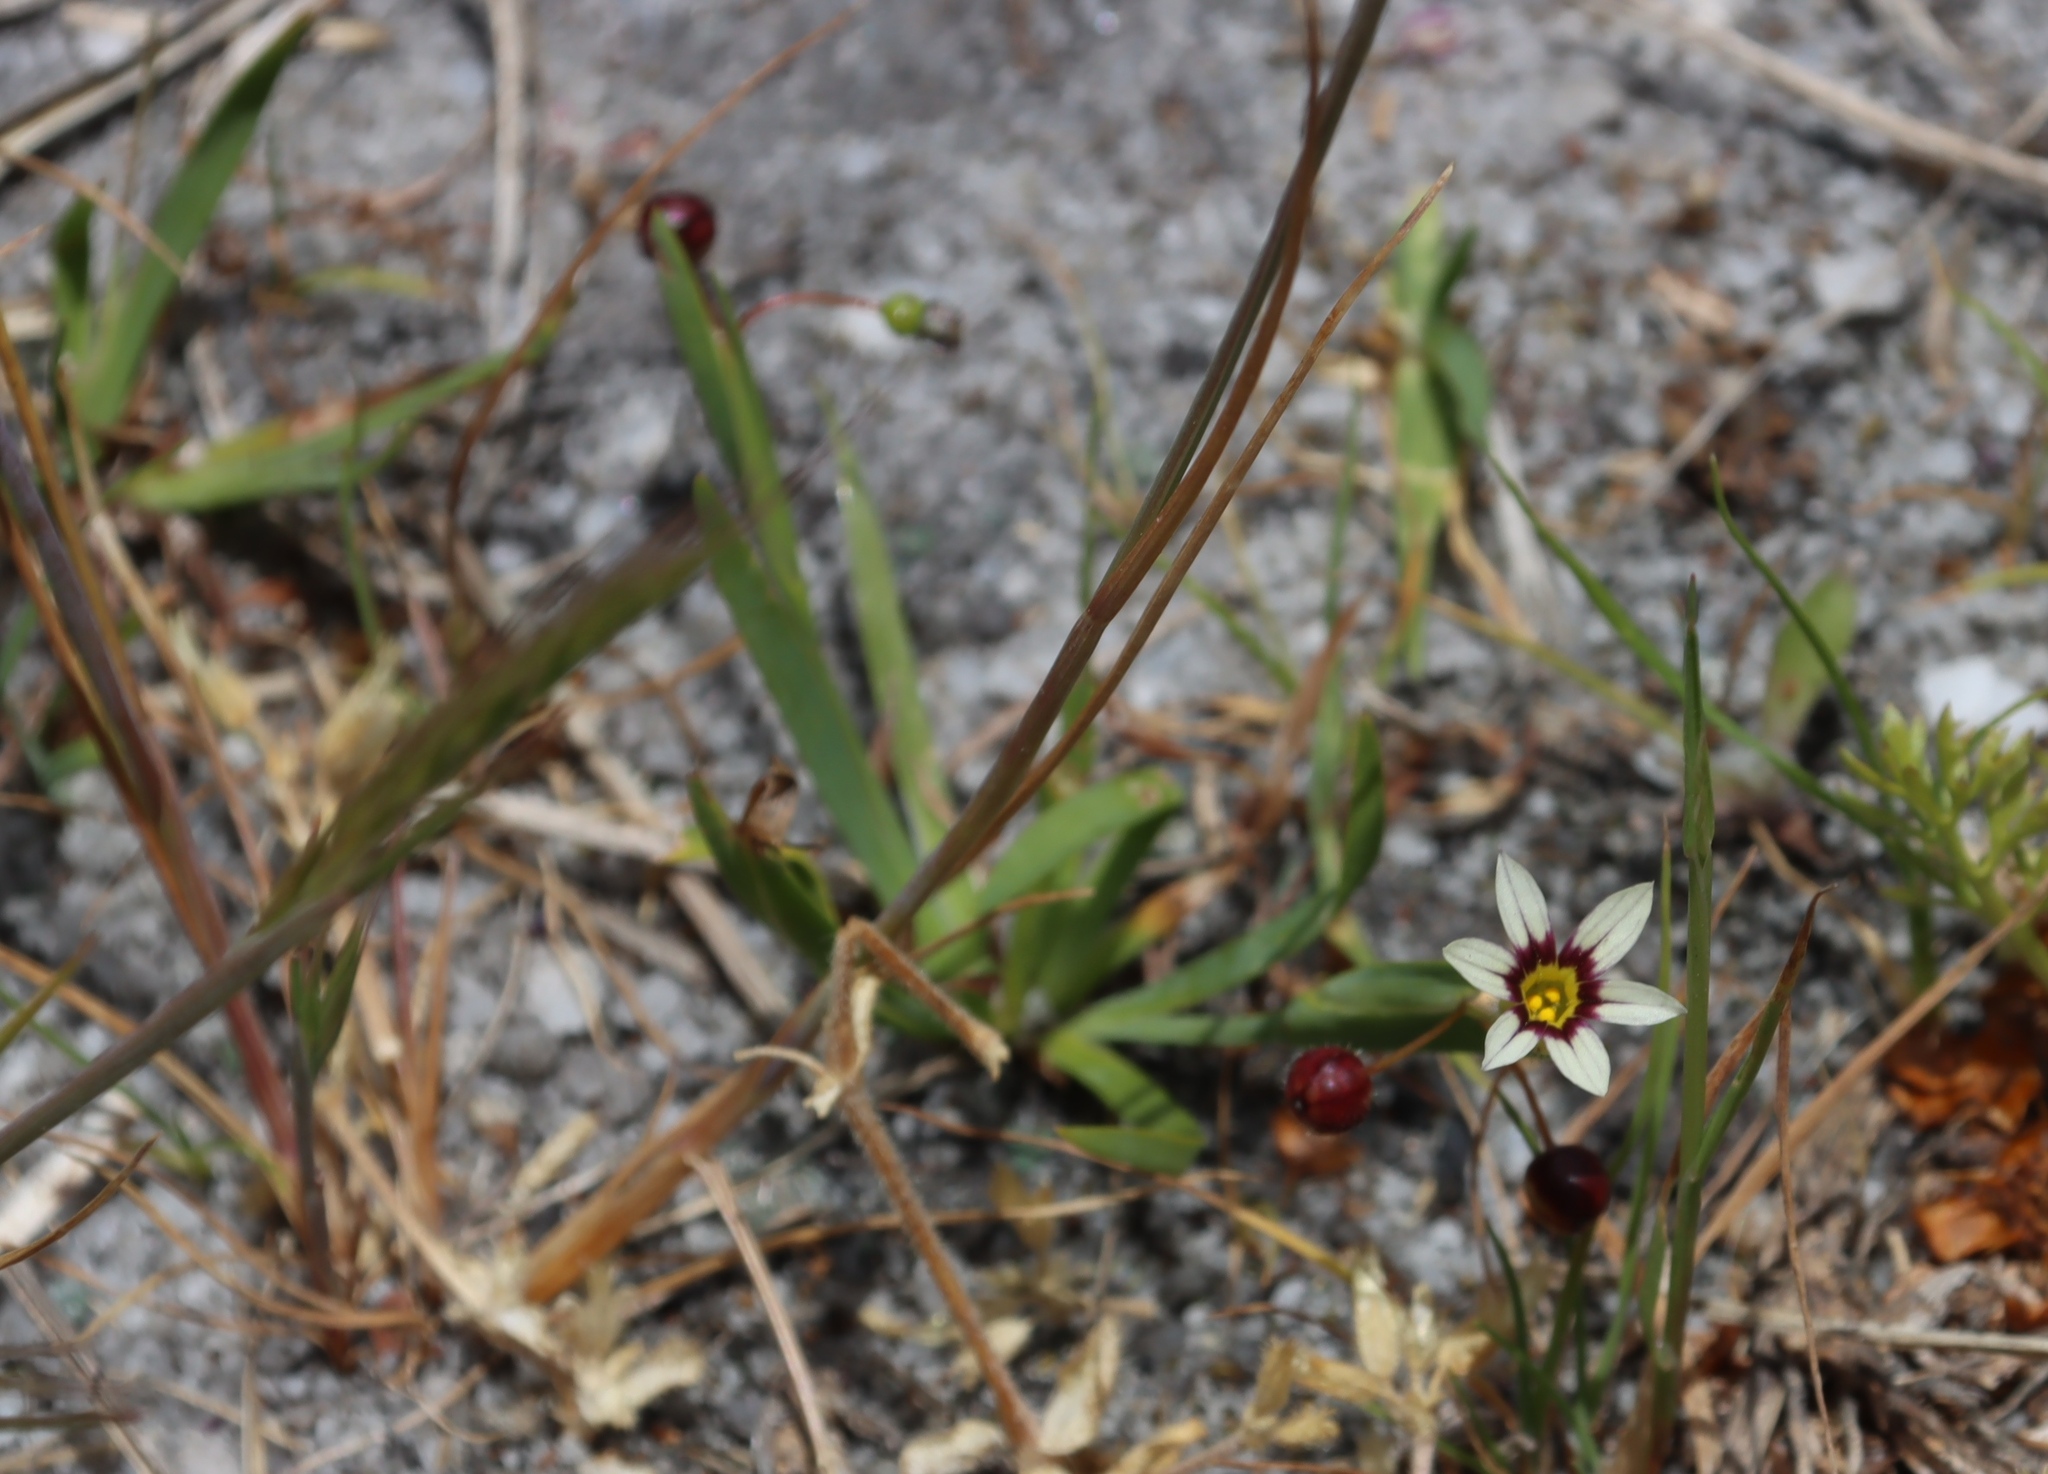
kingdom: Plantae
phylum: Tracheophyta
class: Liliopsida
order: Asparagales
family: Iridaceae
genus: Sisyrinchium
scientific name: Sisyrinchium micranthum
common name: Bermuda pigroot
